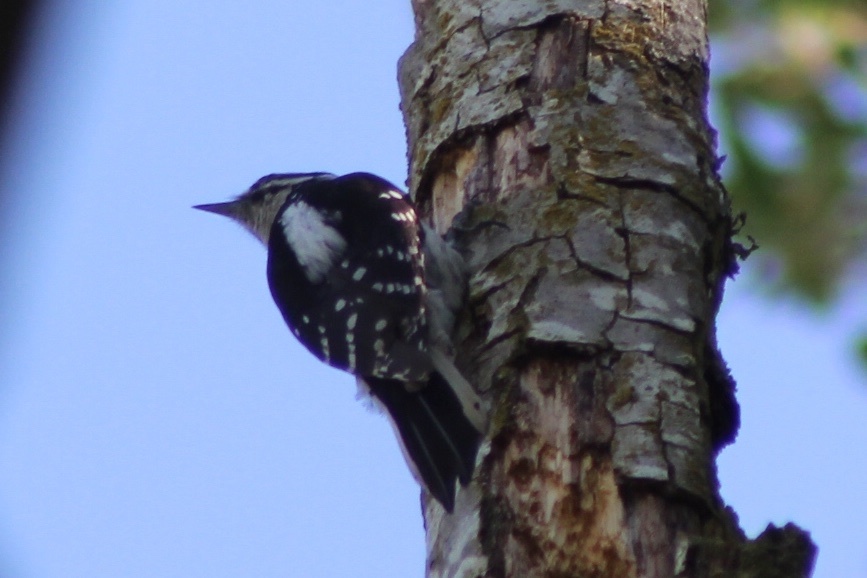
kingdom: Animalia
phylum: Chordata
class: Aves
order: Piciformes
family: Picidae
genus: Dryobates
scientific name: Dryobates pubescens
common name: Downy woodpecker
